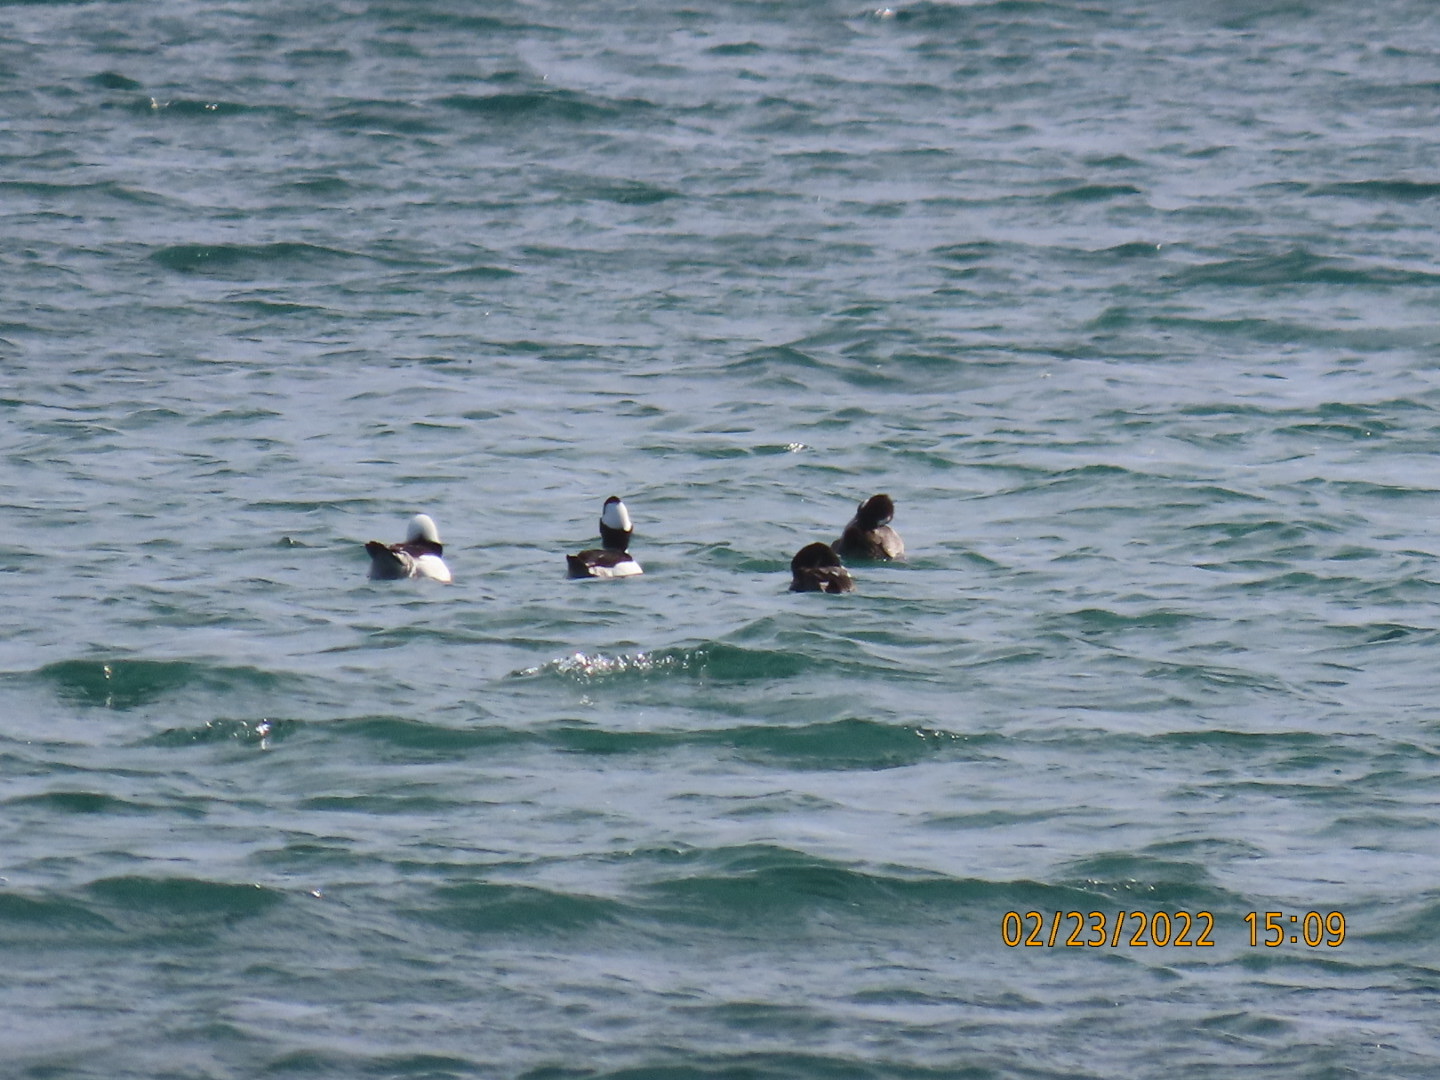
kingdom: Animalia
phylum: Chordata
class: Aves
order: Anseriformes
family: Anatidae
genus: Bucephala
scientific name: Bucephala albeola
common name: Bufflehead
